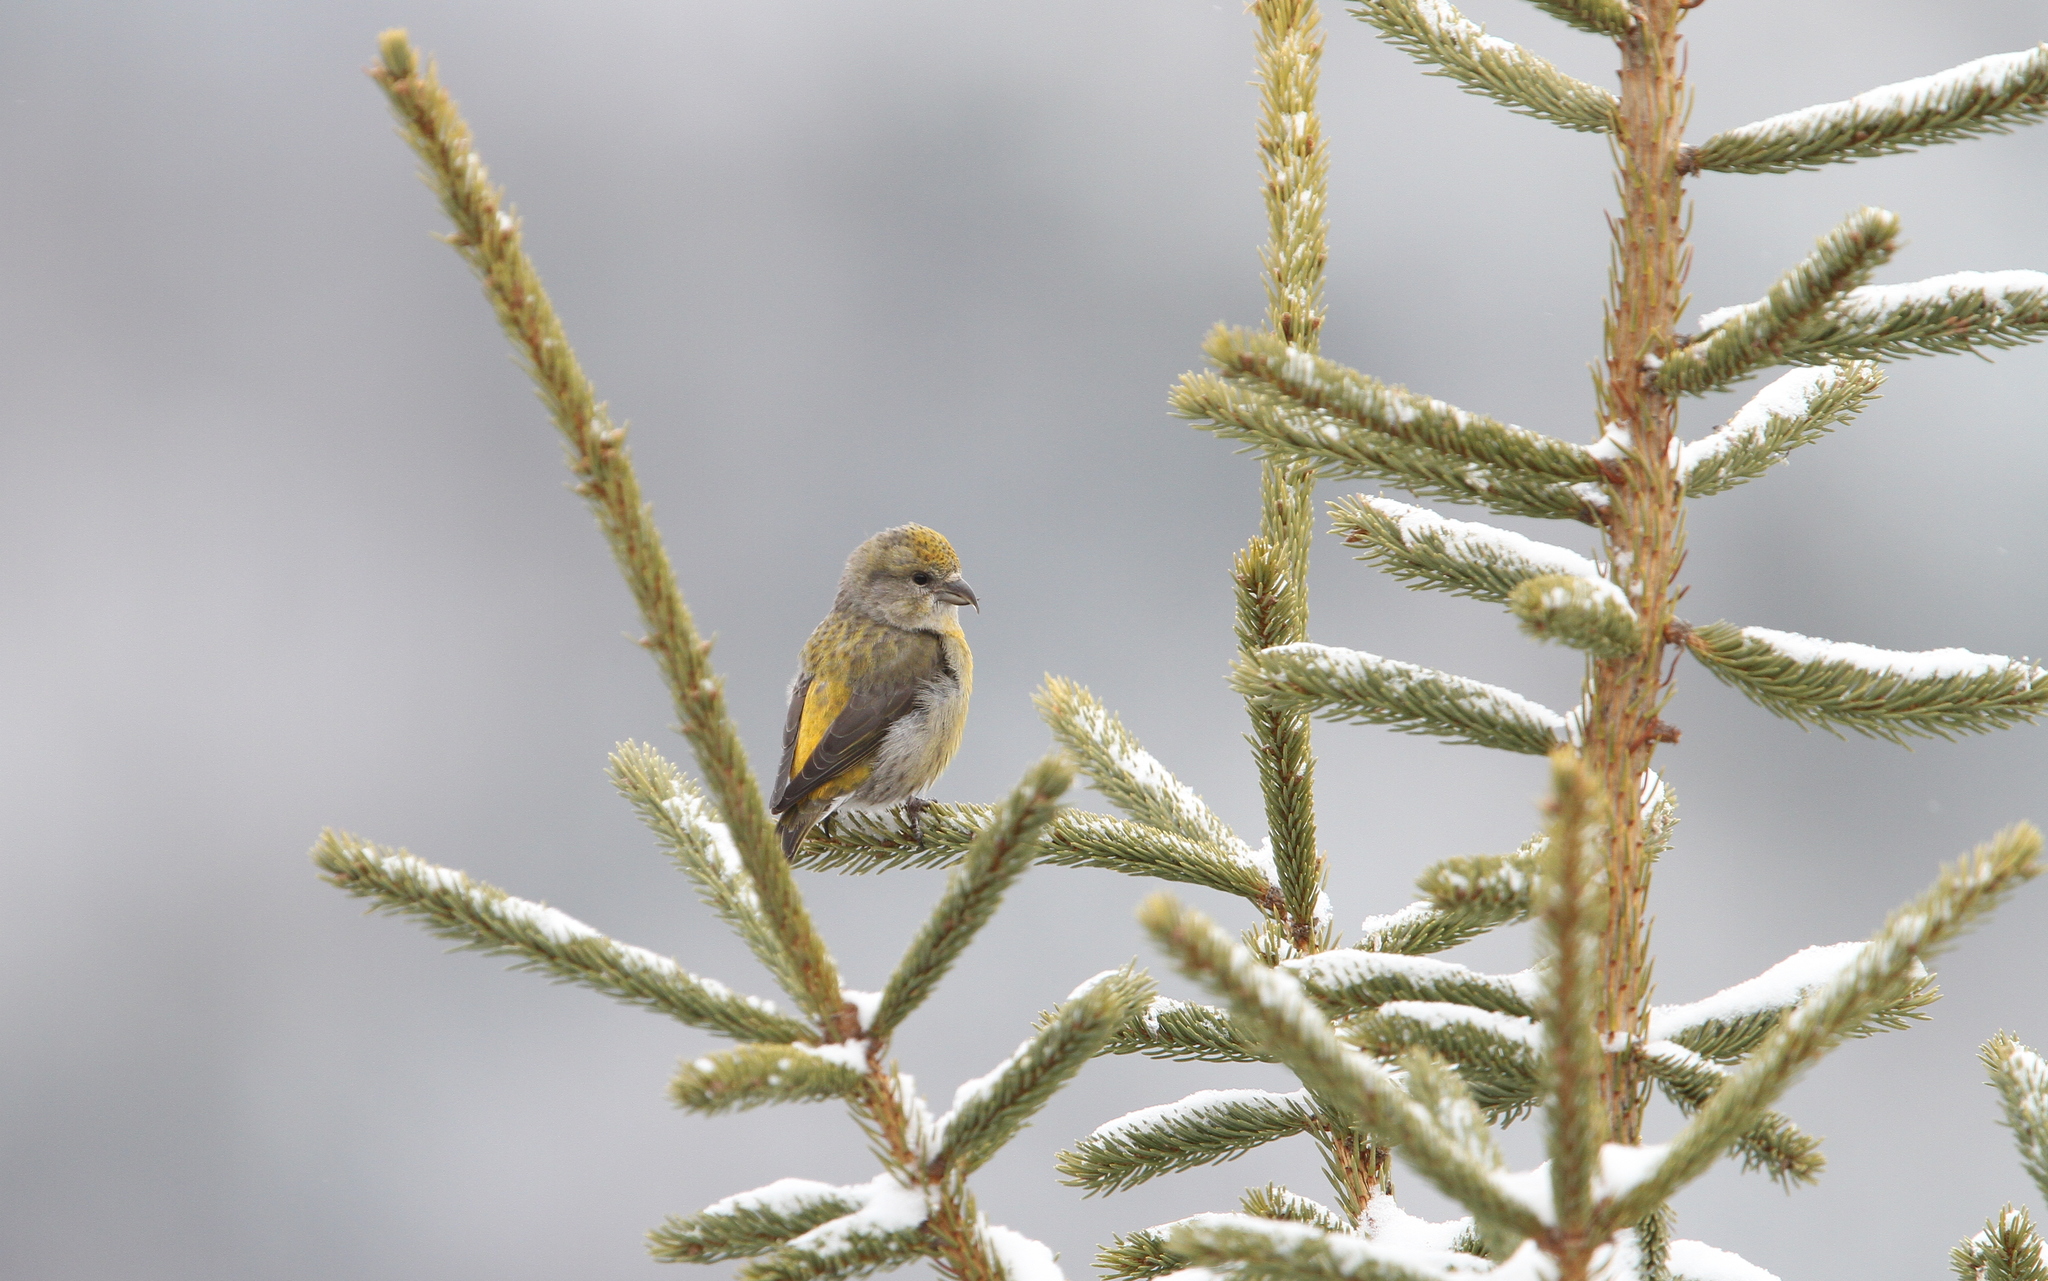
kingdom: Animalia
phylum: Chordata
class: Aves
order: Passeriformes
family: Fringillidae
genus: Loxia
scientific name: Loxia curvirostra
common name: Red crossbill
